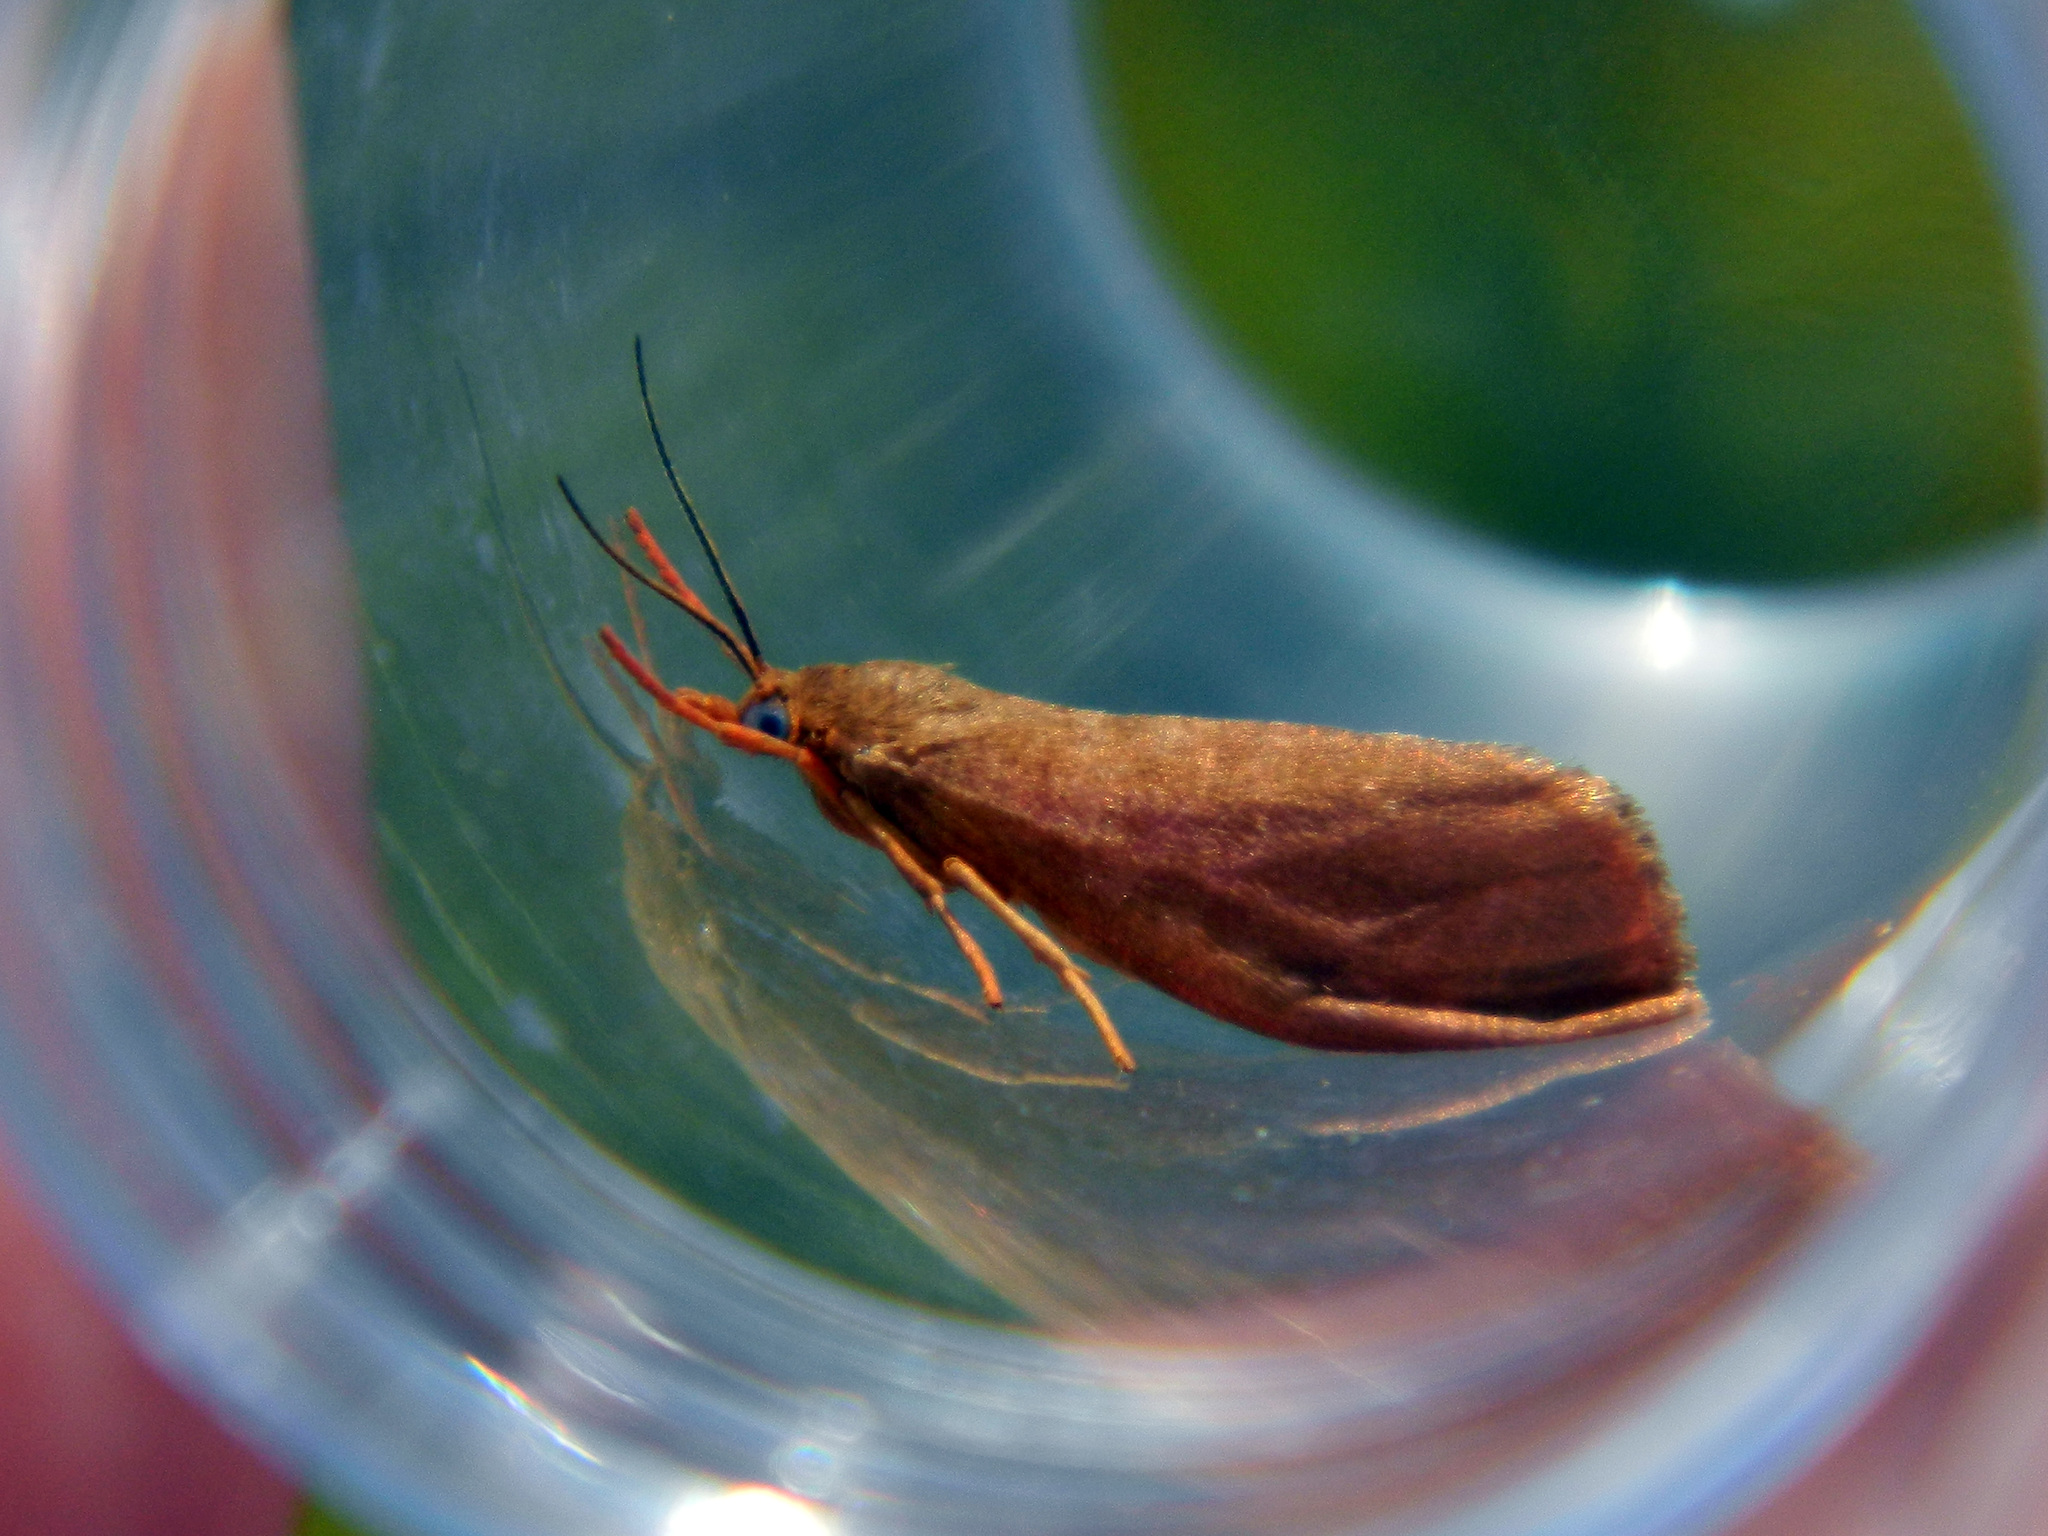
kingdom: Animalia
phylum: Arthropoda
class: Insecta
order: Lepidoptera
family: Erebidae
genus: Virbia
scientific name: Virbia ferruginosa
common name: Rusty virbia moth
